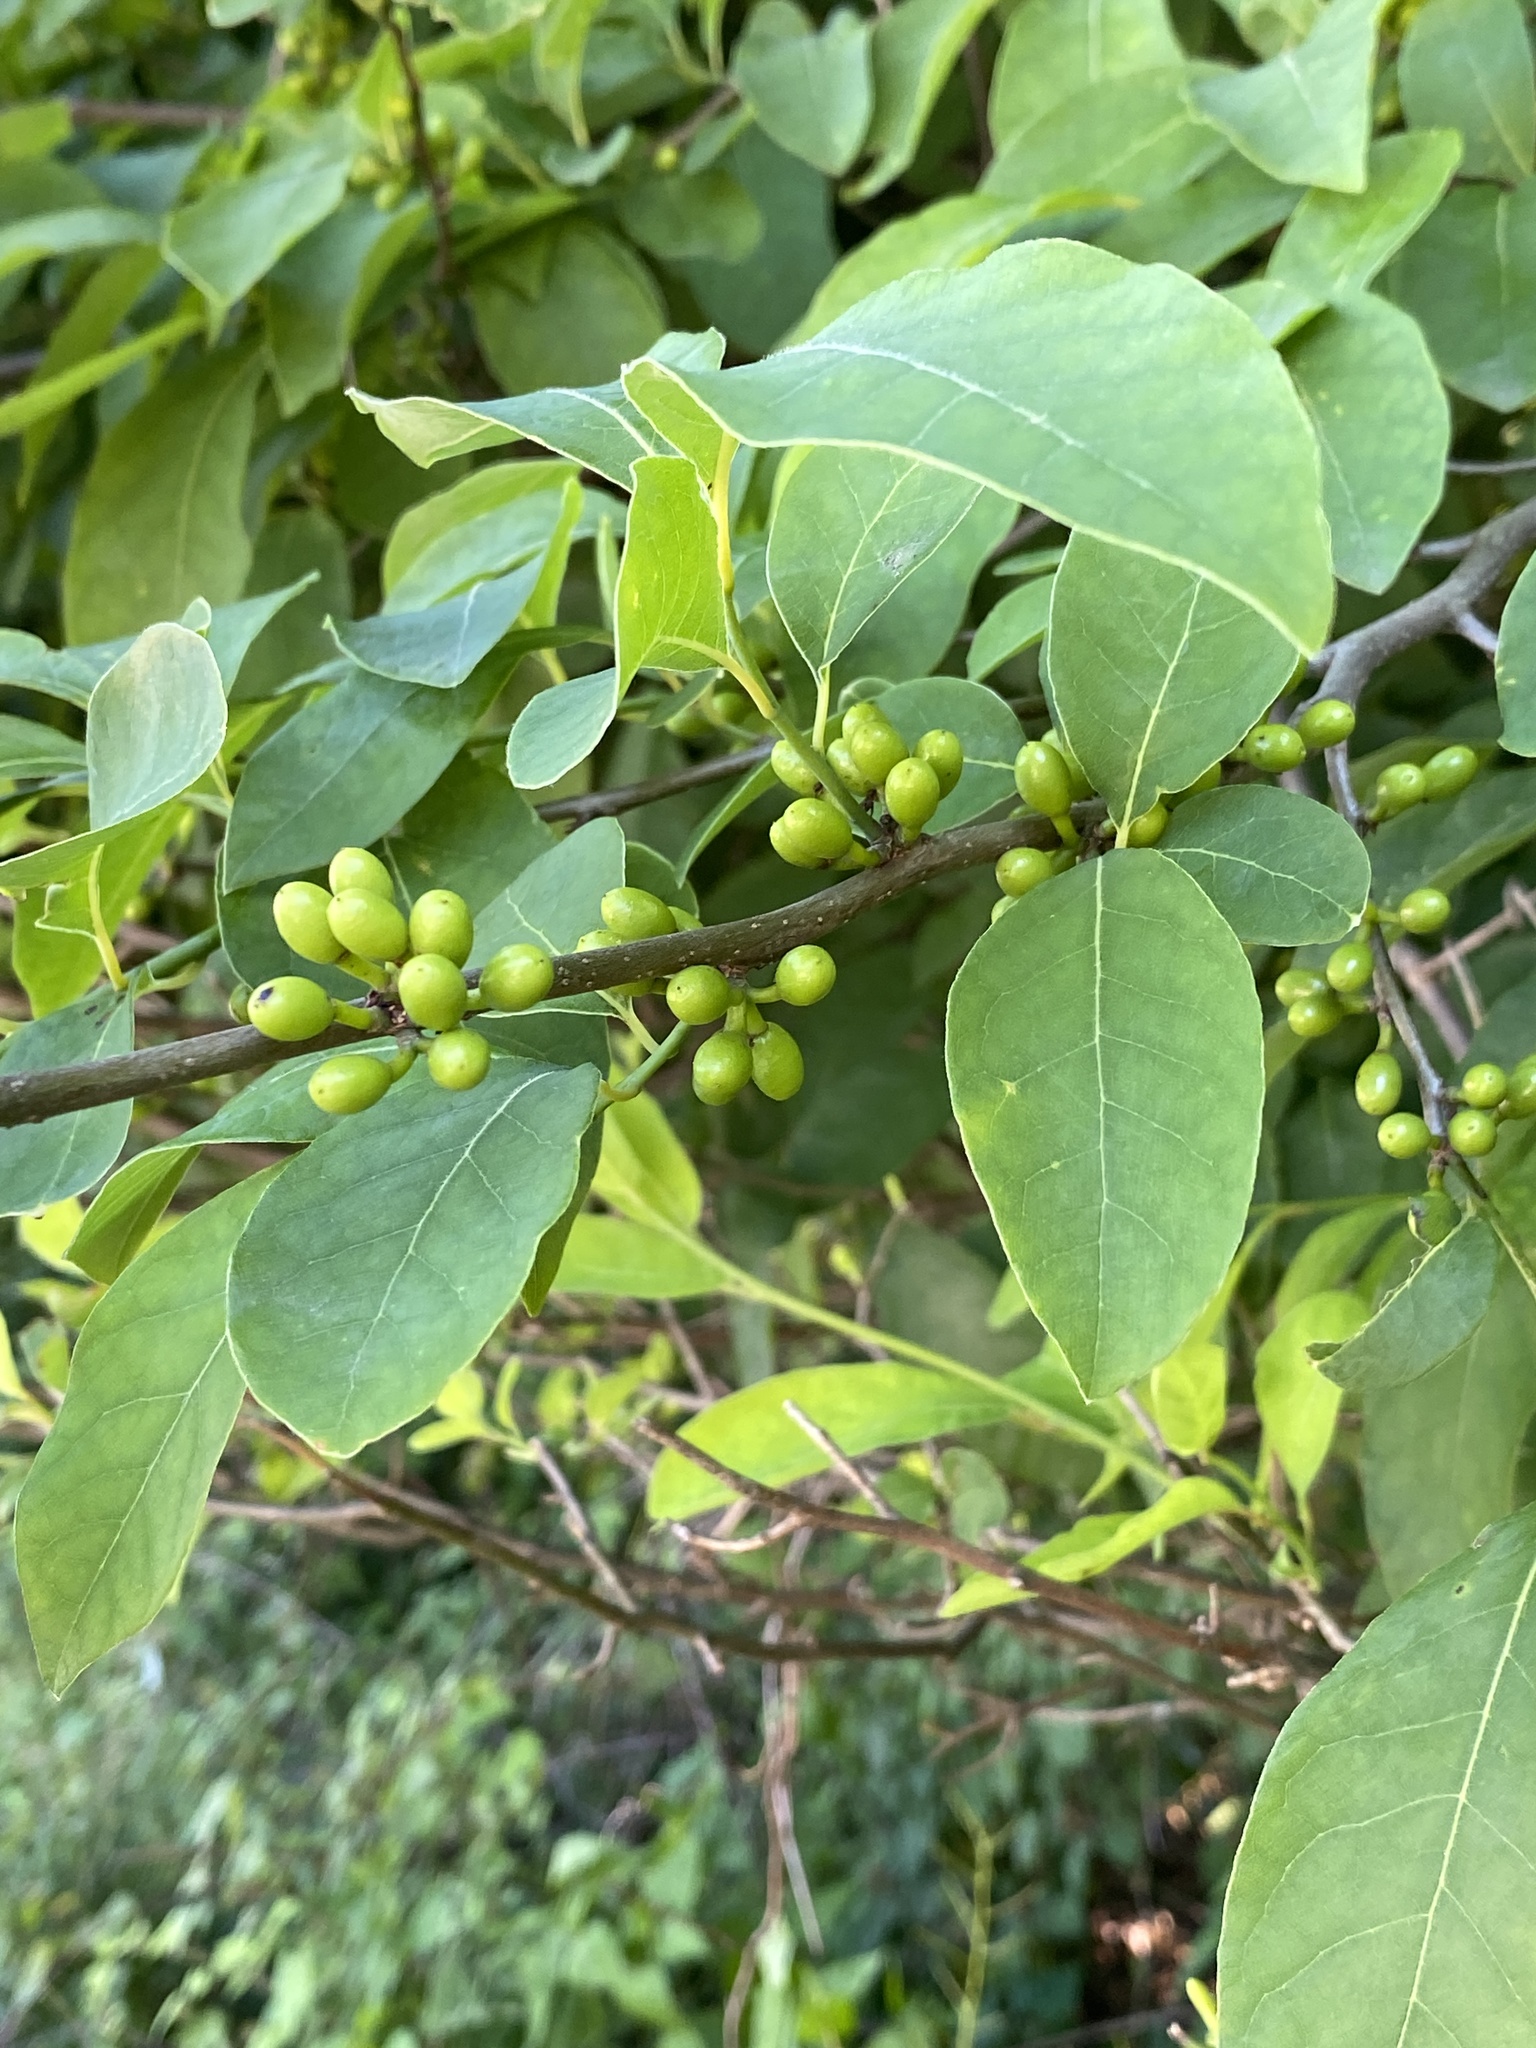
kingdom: Plantae
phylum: Tracheophyta
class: Magnoliopsida
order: Laurales
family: Lauraceae
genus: Lindera
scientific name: Lindera benzoin
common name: Spicebush
